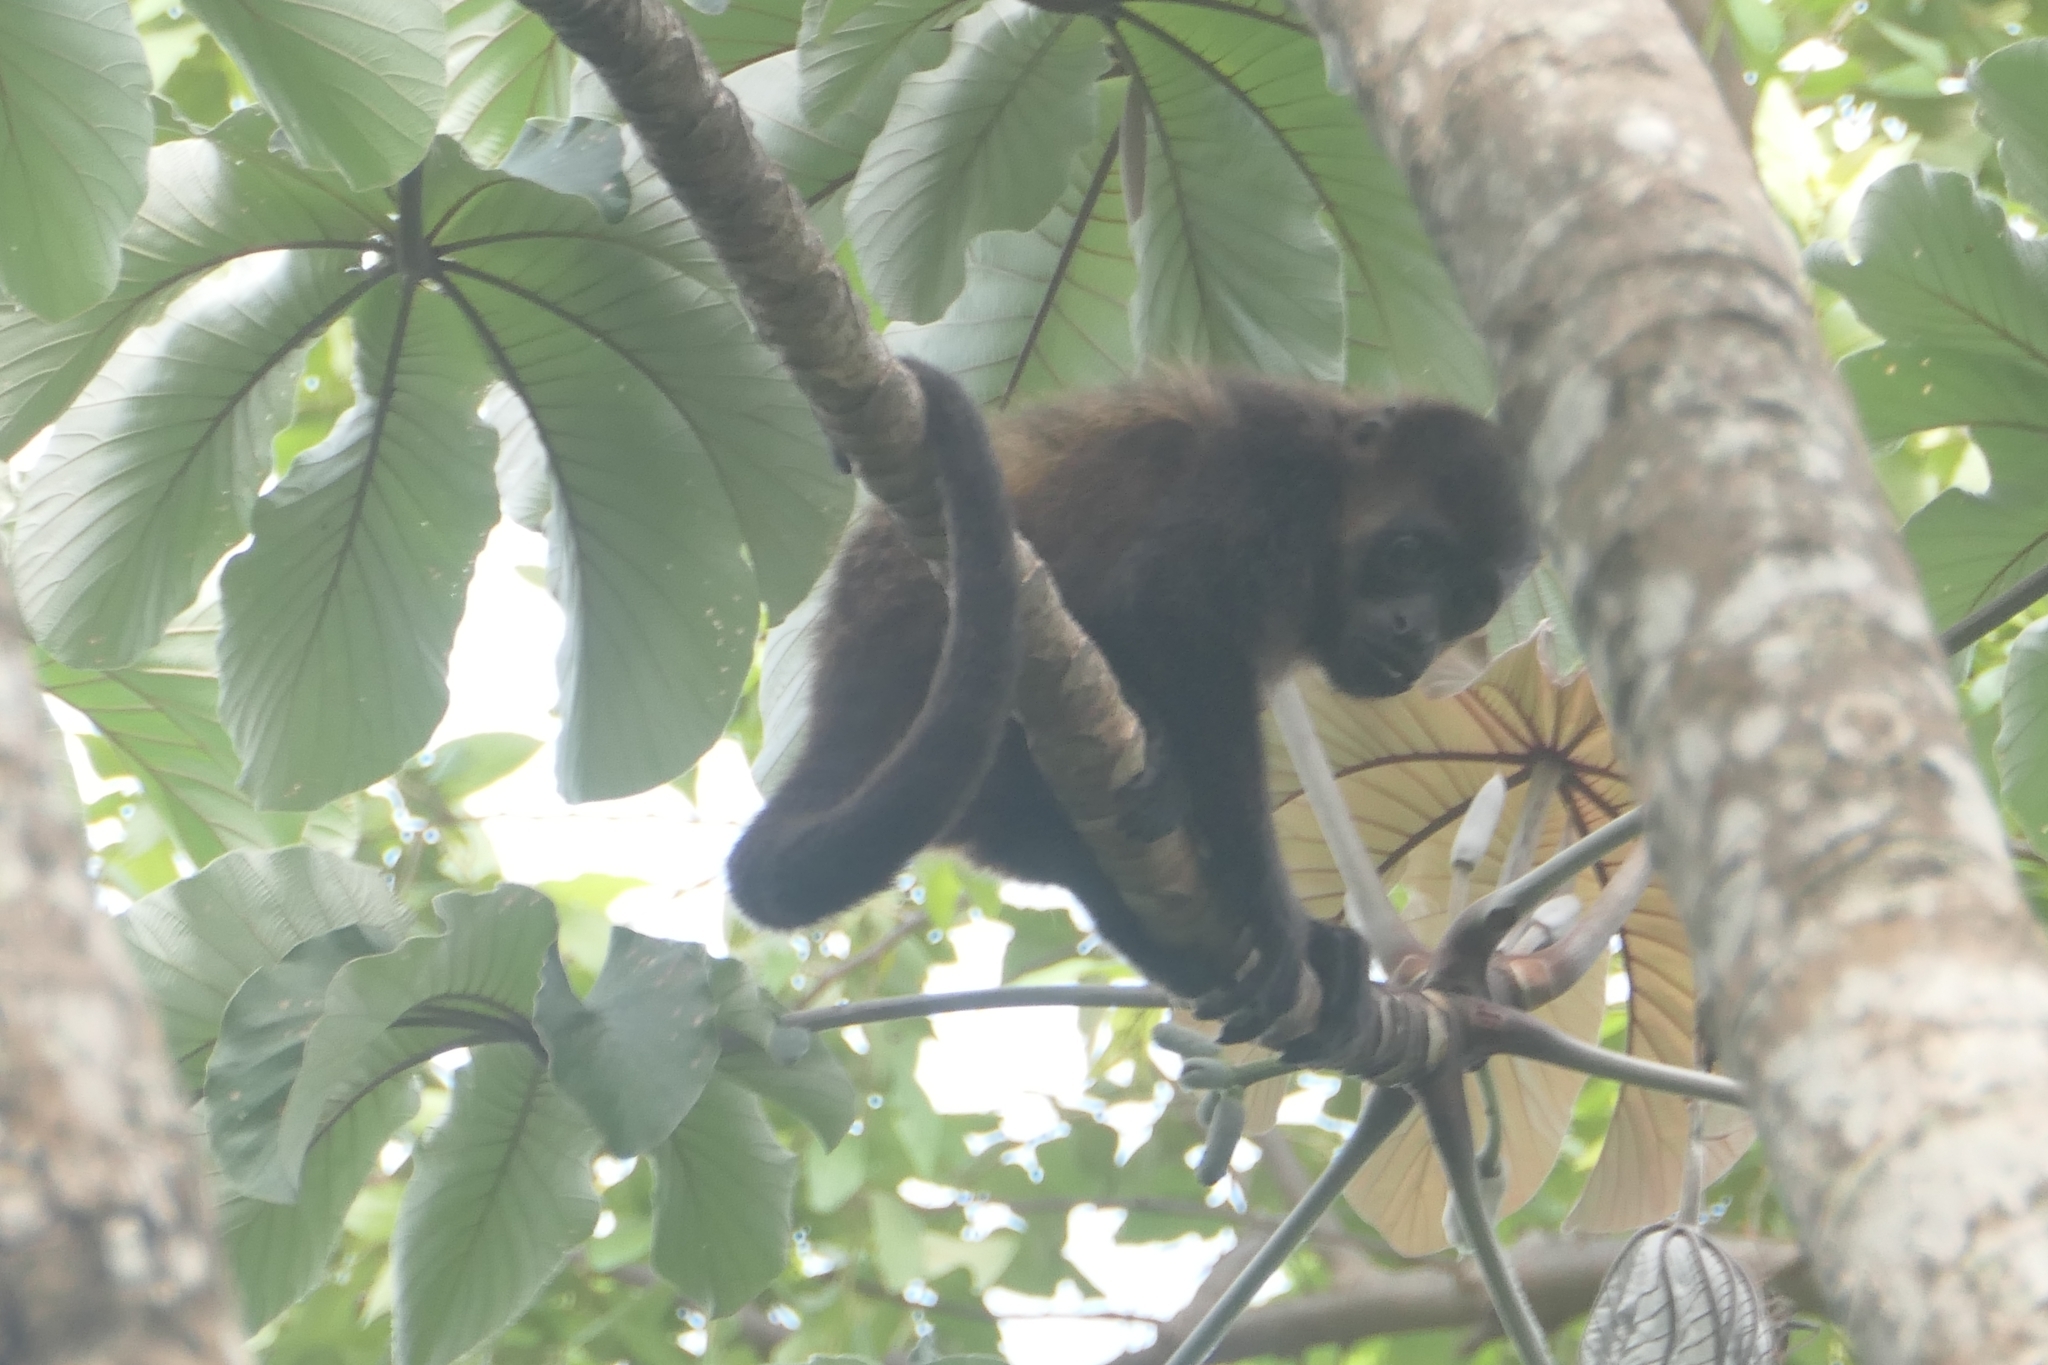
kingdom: Animalia
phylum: Chordata
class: Mammalia
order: Primates
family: Atelidae
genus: Alouatta
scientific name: Alouatta palliata
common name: Mantled howler
